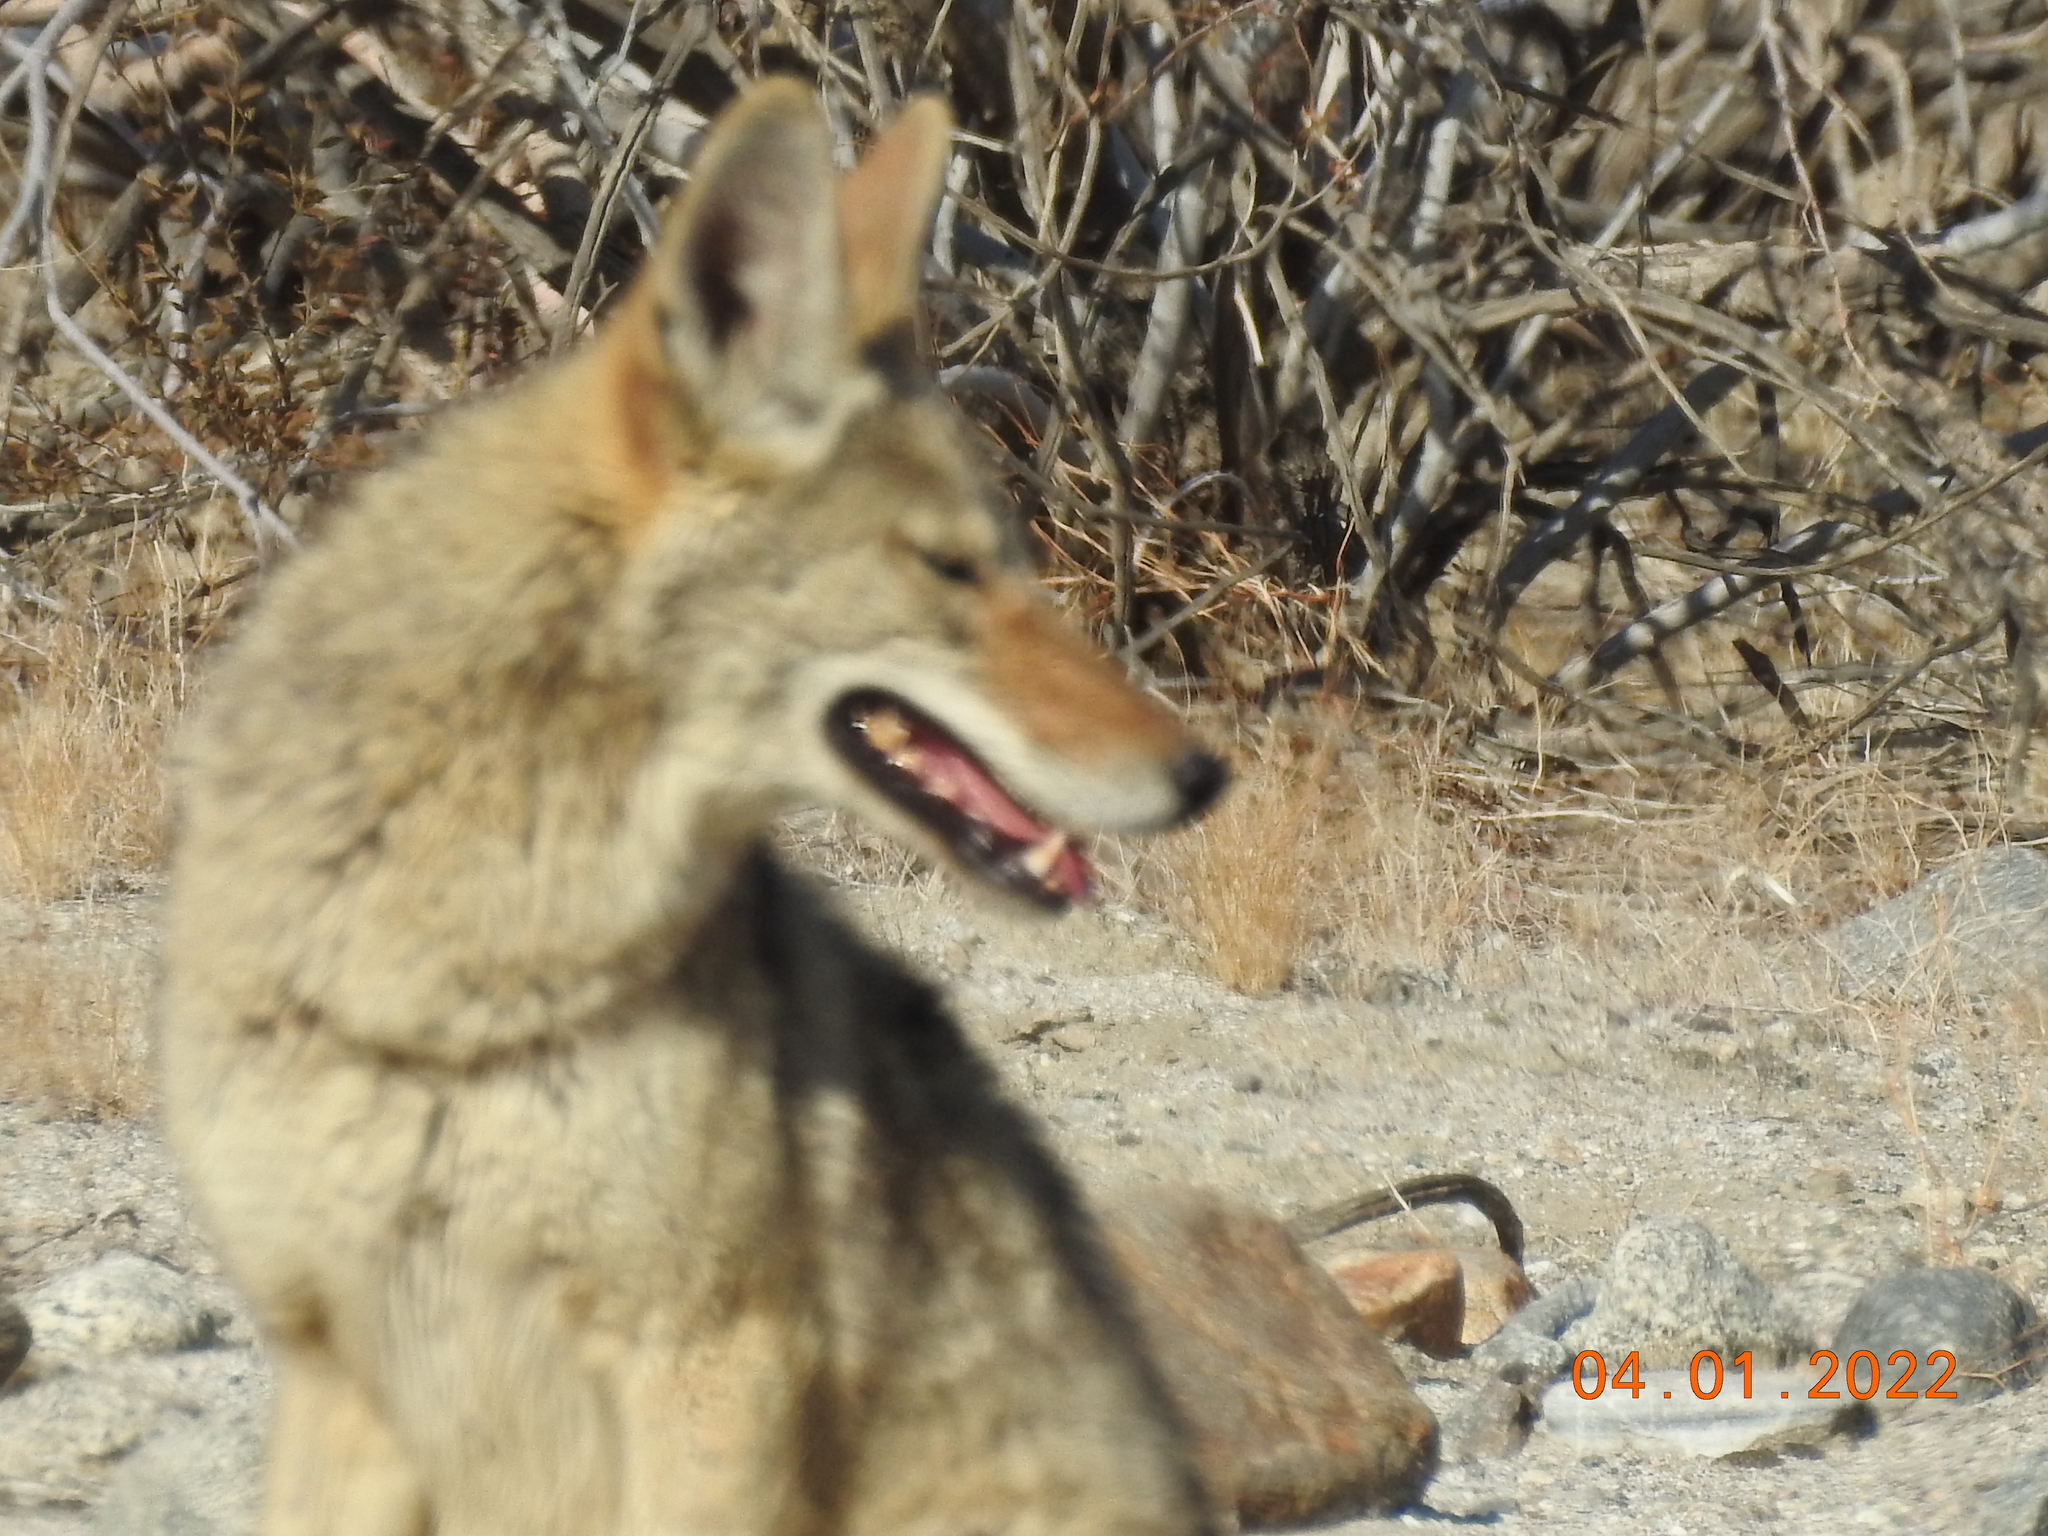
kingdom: Animalia
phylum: Chordata
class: Mammalia
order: Carnivora
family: Canidae
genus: Canis
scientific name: Canis latrans
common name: Coyote
